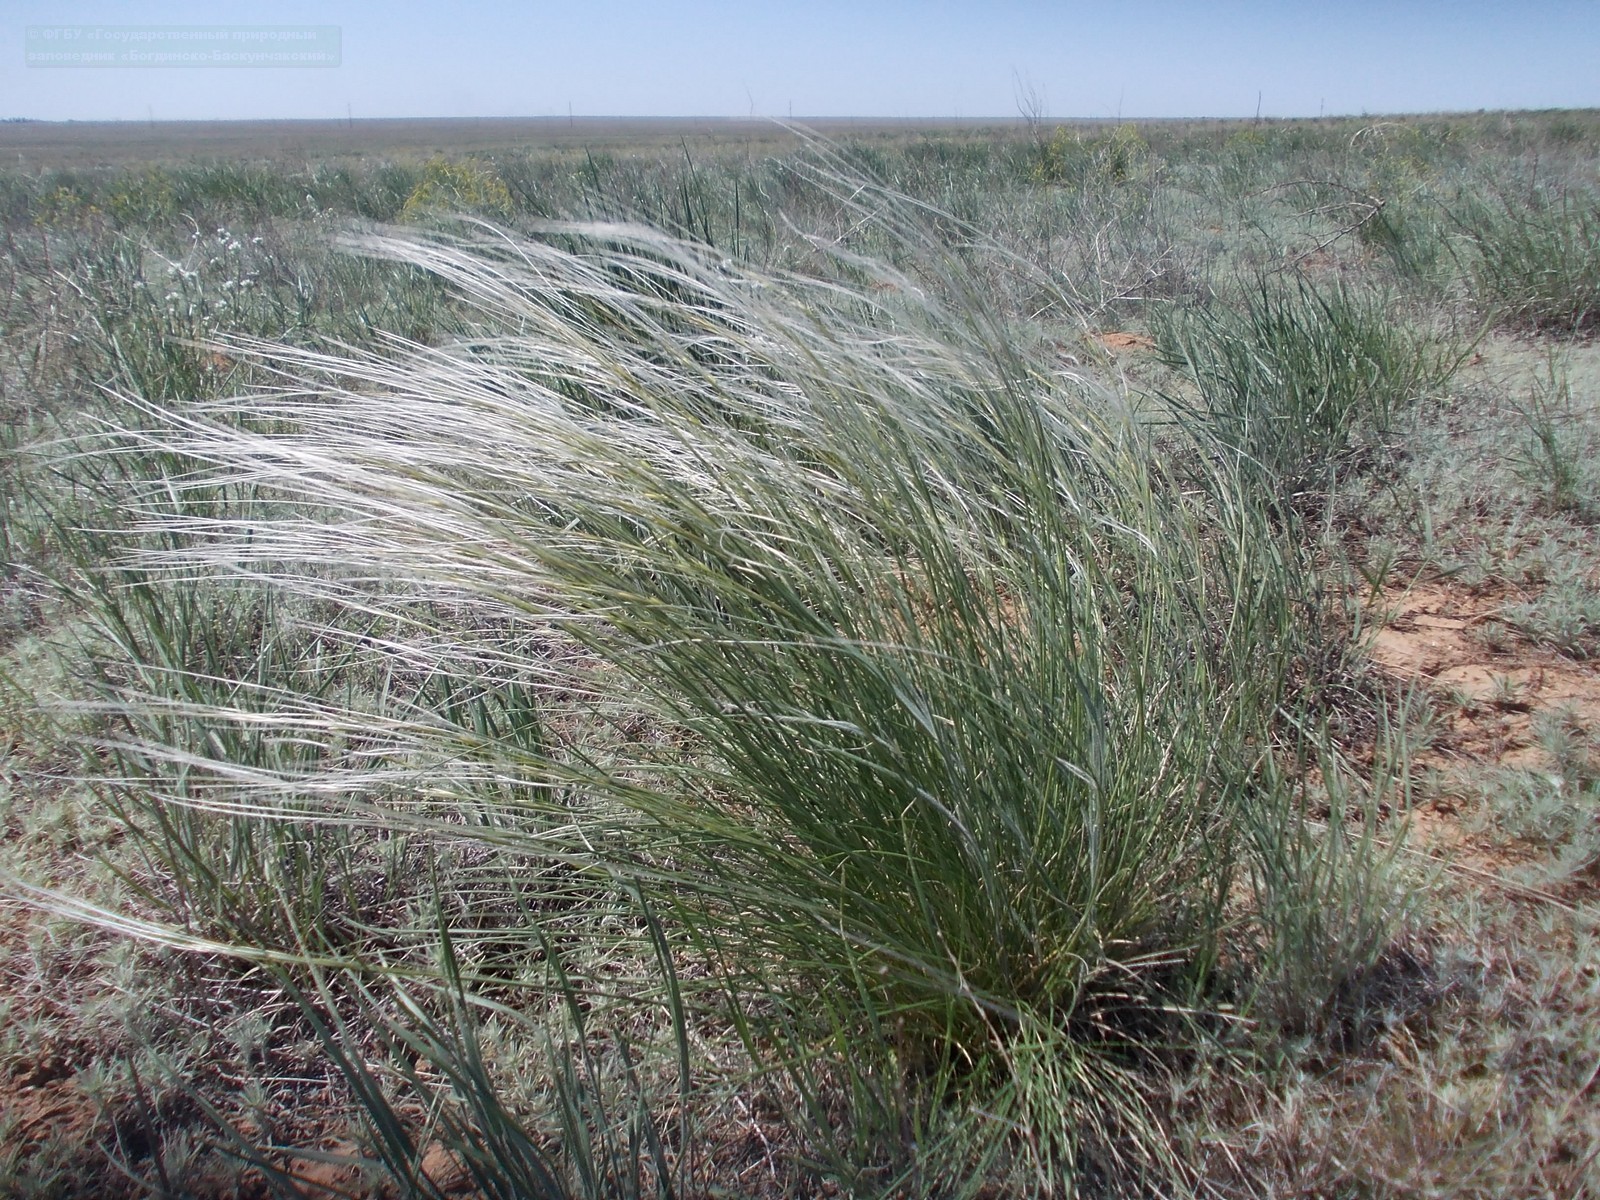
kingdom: Plantae
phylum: Tracheophyta
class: Liliopsida
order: Poales
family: Poaceae
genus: Stipa
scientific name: Stipa lessingiana
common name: Needle grass
